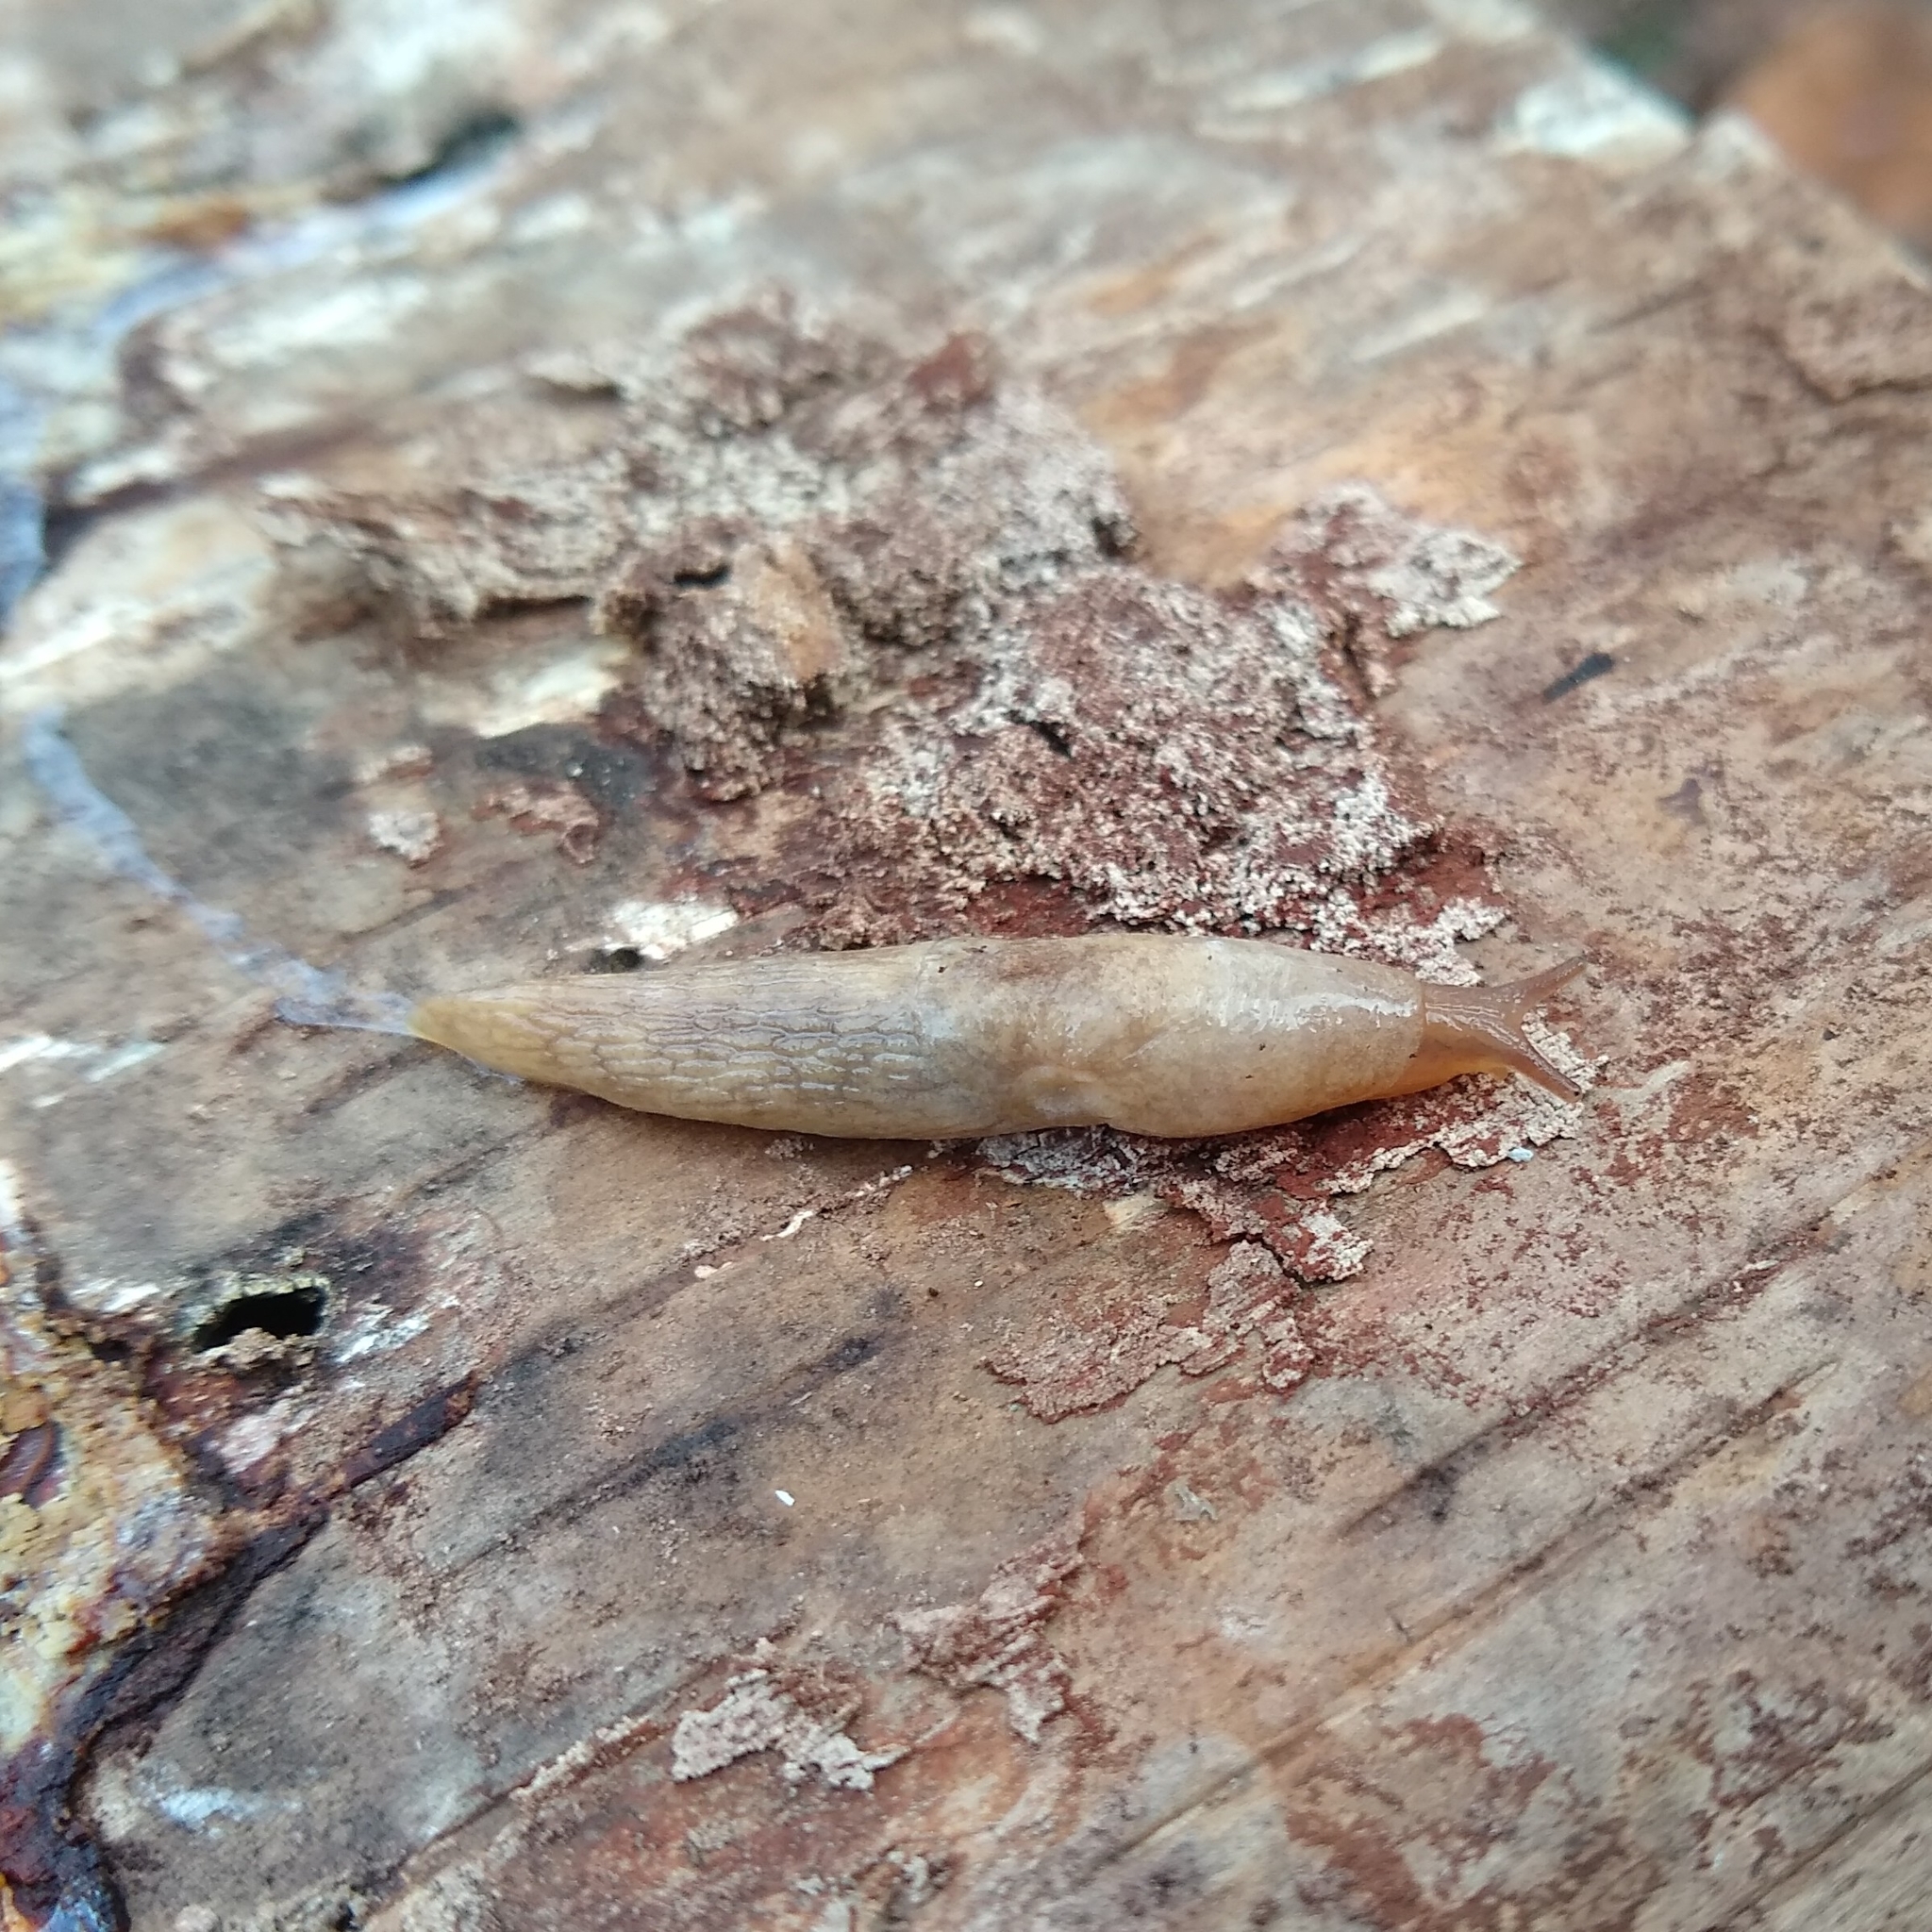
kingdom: Animalia
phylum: Mollusca
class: Gastropoda
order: Stylommatophora
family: Agriolimacidae
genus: Deroceras
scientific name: Deroceras reticulatum
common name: Gray field slug
